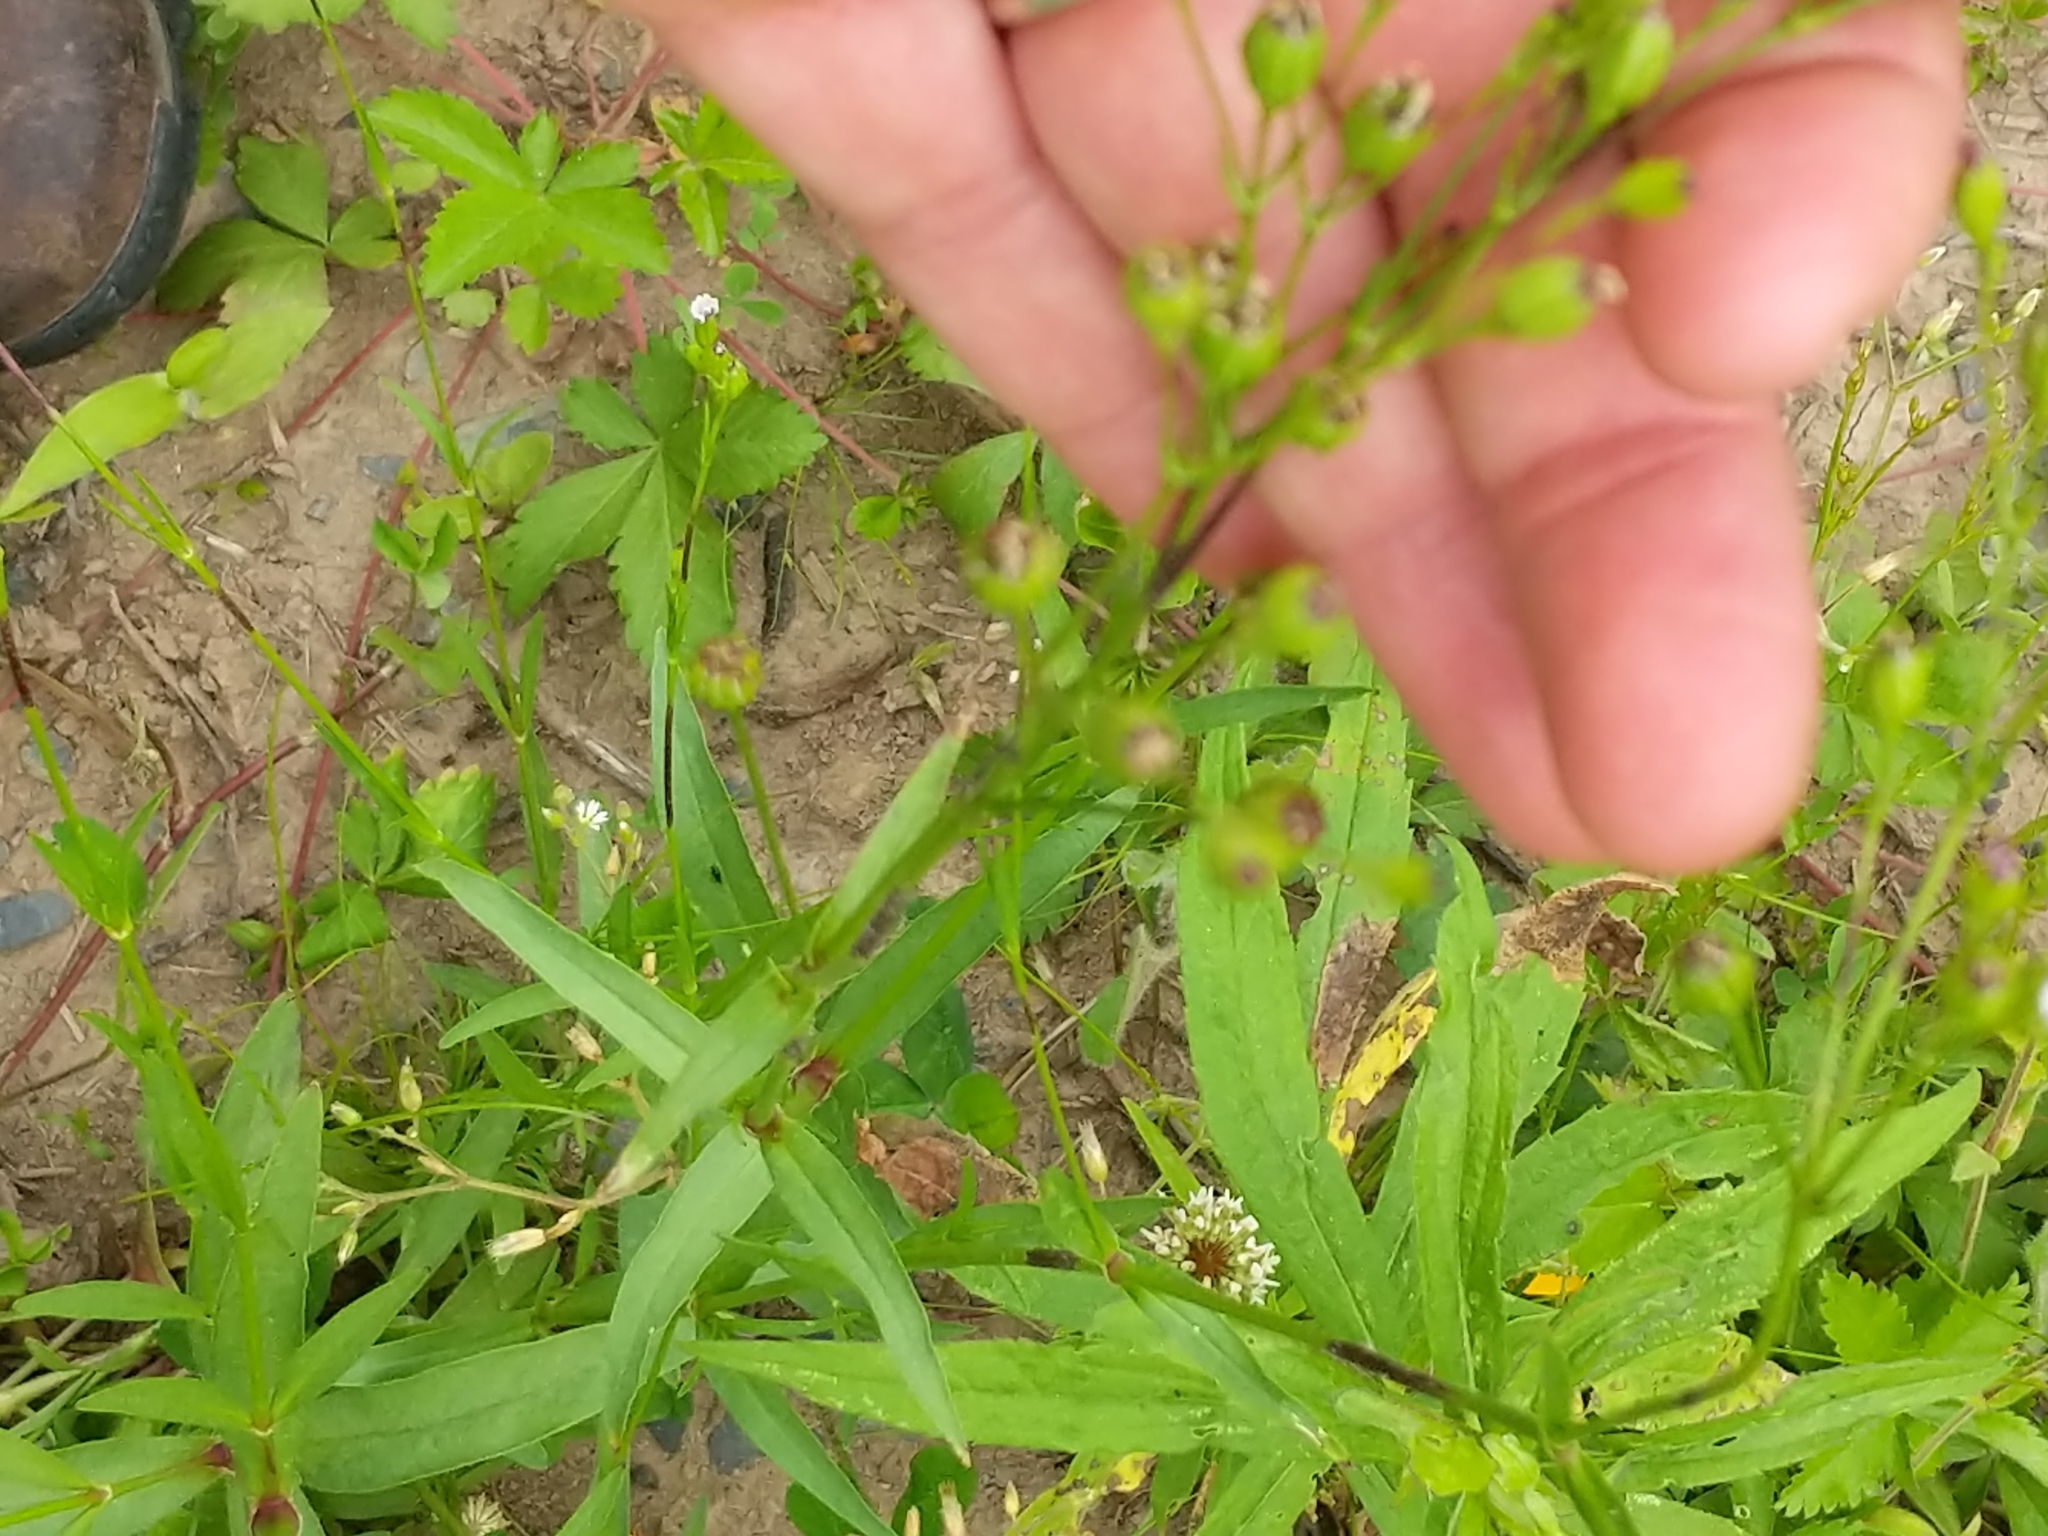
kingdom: Plantae
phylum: Tracheophyta
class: Magnoliopsida
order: Caryophyllales
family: Caryophyllaceae
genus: Silene
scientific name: Silene antirrhina
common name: Sleepy catchfly
